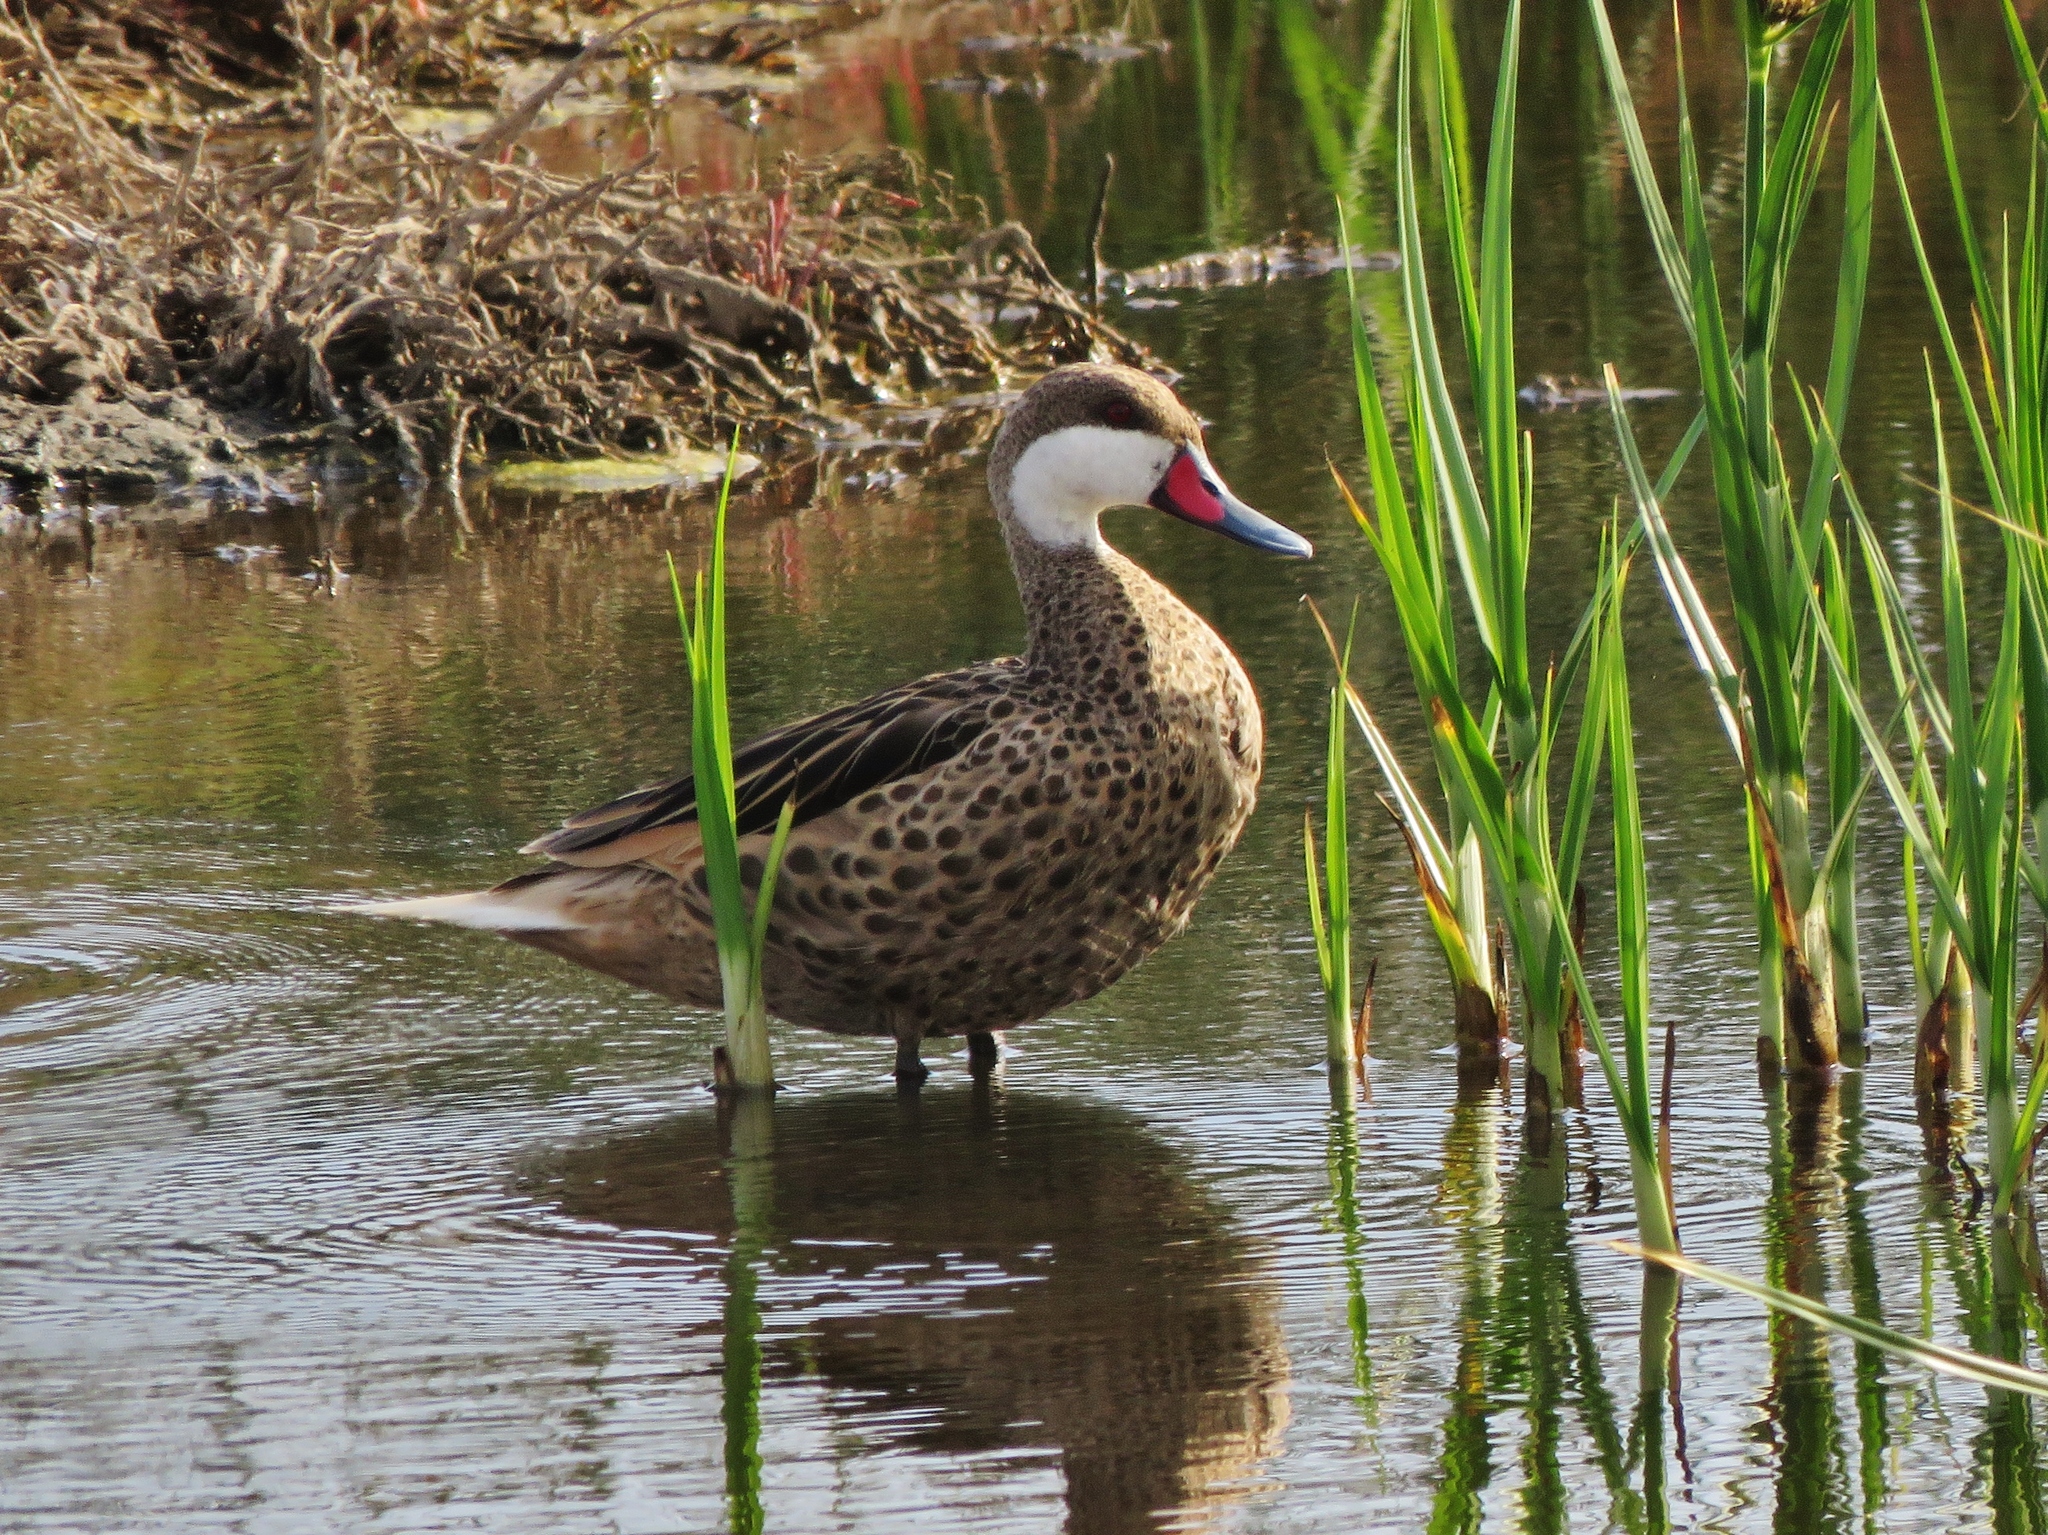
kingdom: Animalia
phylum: Chordata
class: Aves
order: Anseriformes
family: Anatidae
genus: Anas
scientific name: Anas bahamensis
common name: White-cheeked pintail
